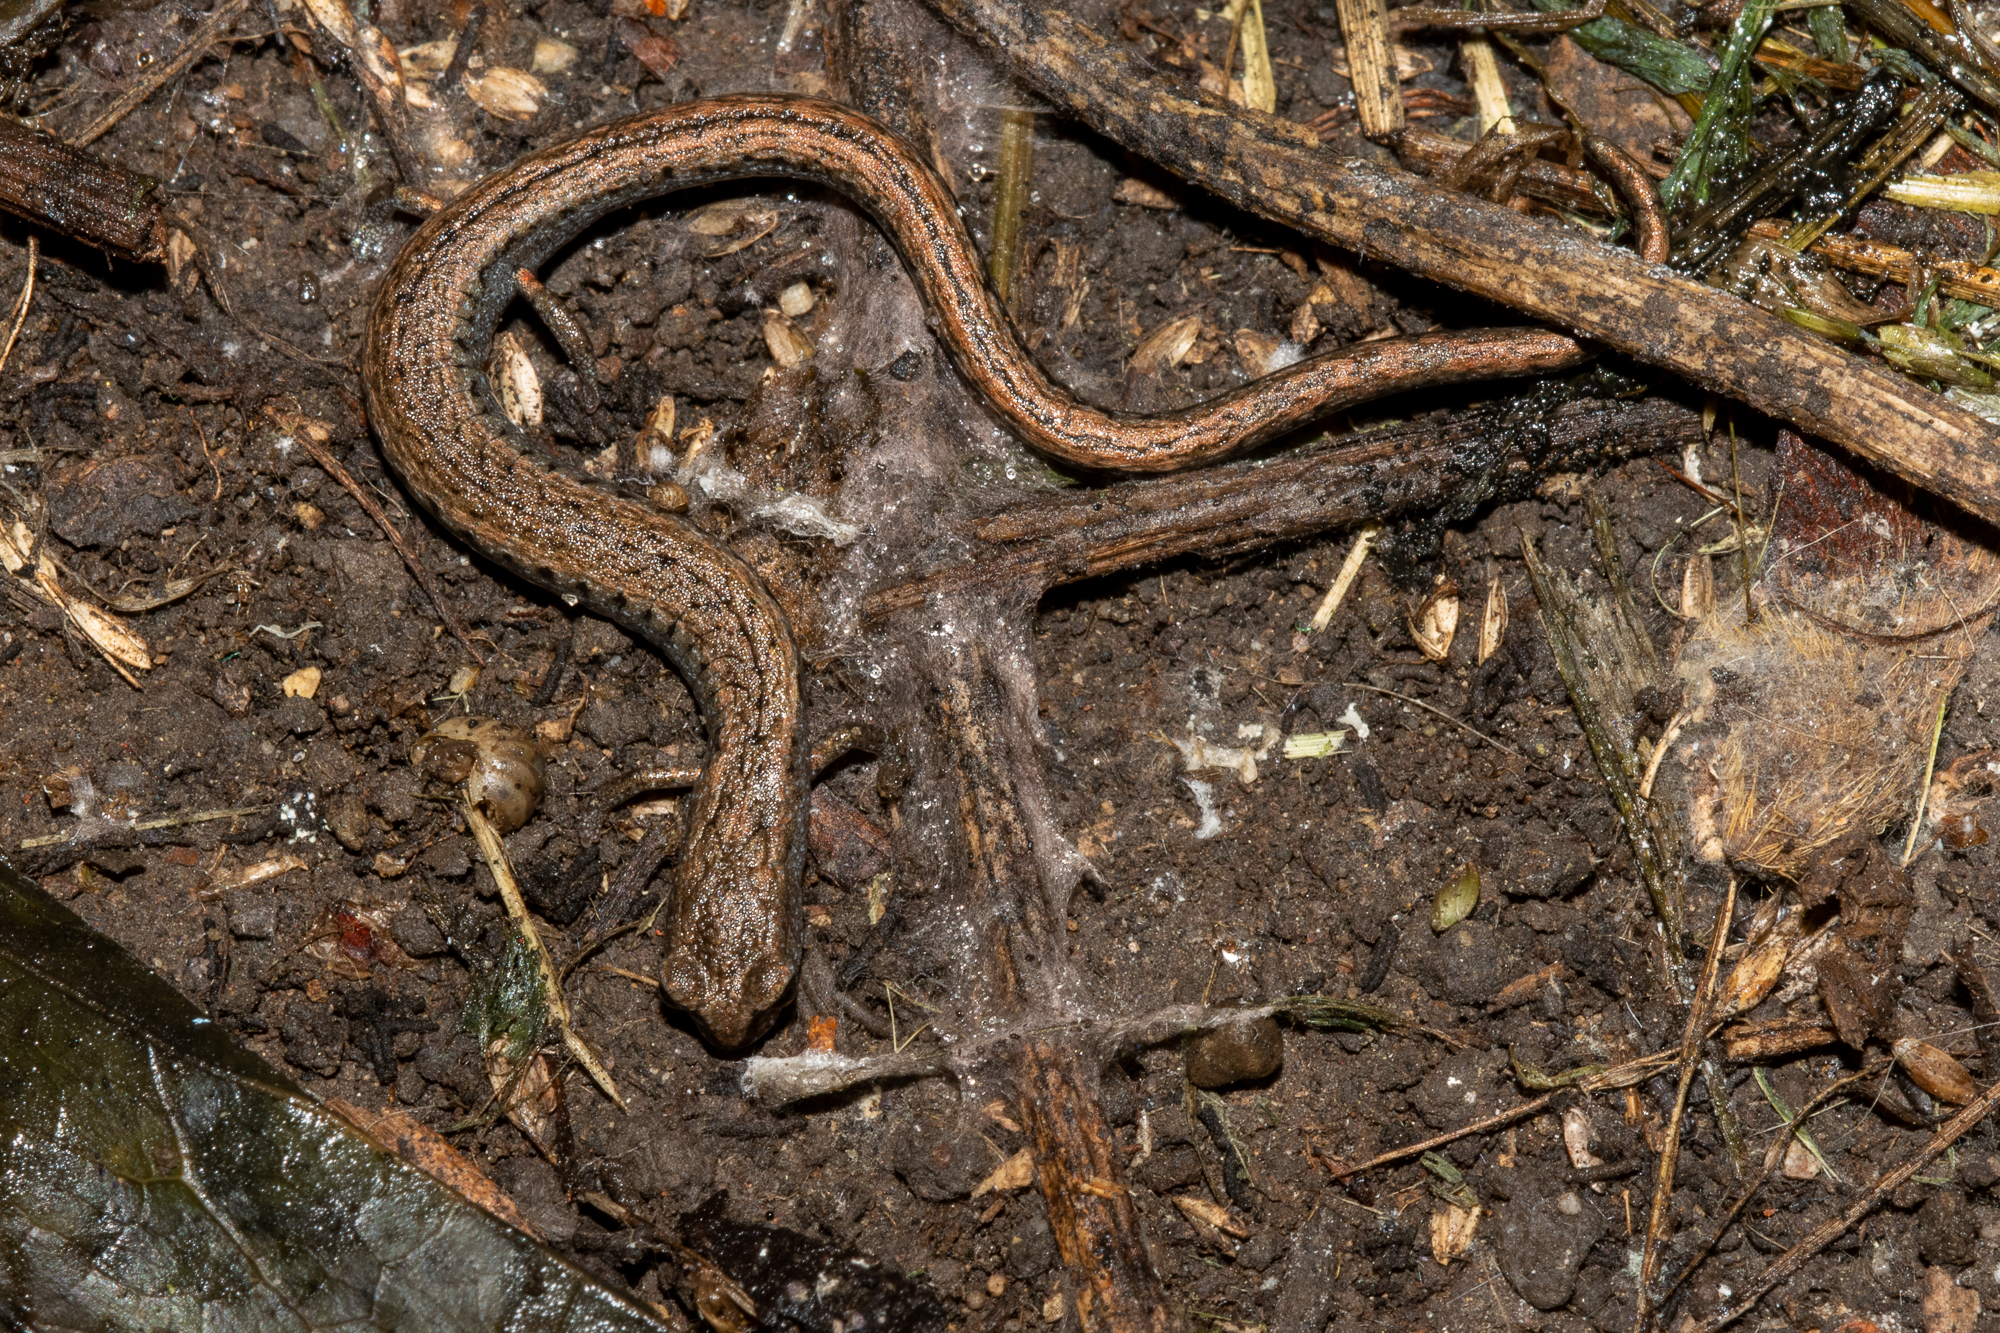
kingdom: Animalia
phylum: Chordata
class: Amphibia
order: Caudata
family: Plethodontidae
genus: Batrachoseps
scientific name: Batrachoseps attenuatus
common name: California slender salamander
